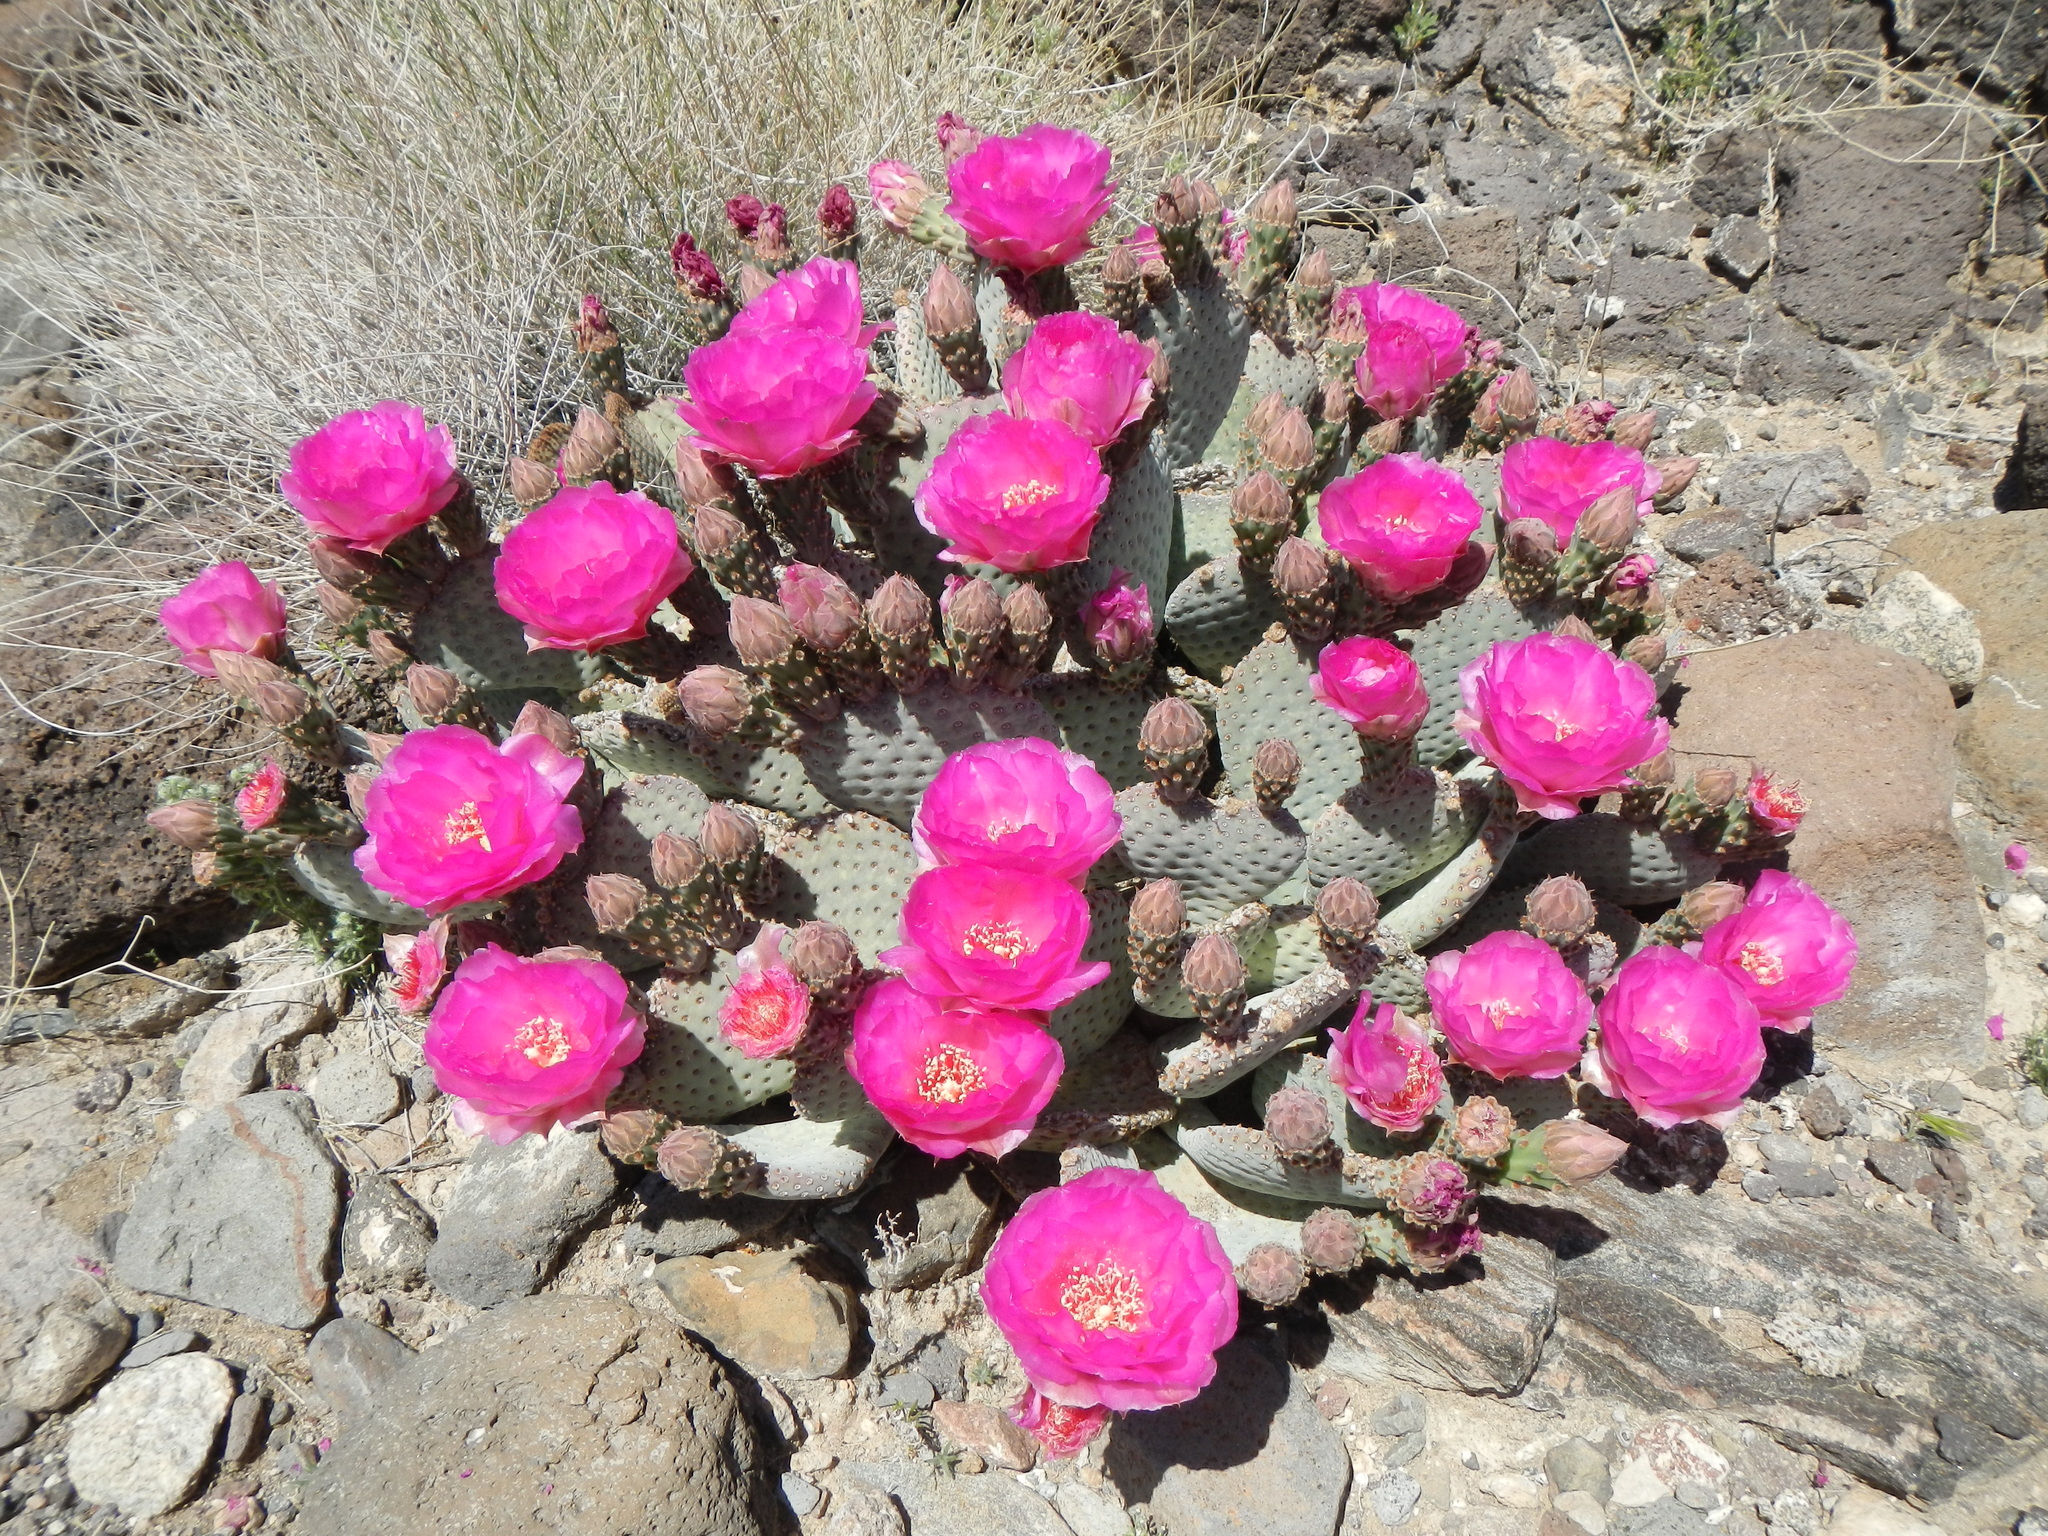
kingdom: Plantae
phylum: Tracheophyta
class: Magnoliopsida
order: Caryophyllales
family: Cactaceae
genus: Opuntia
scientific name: Opuntia basilaris
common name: Beavertail prickly-pear
